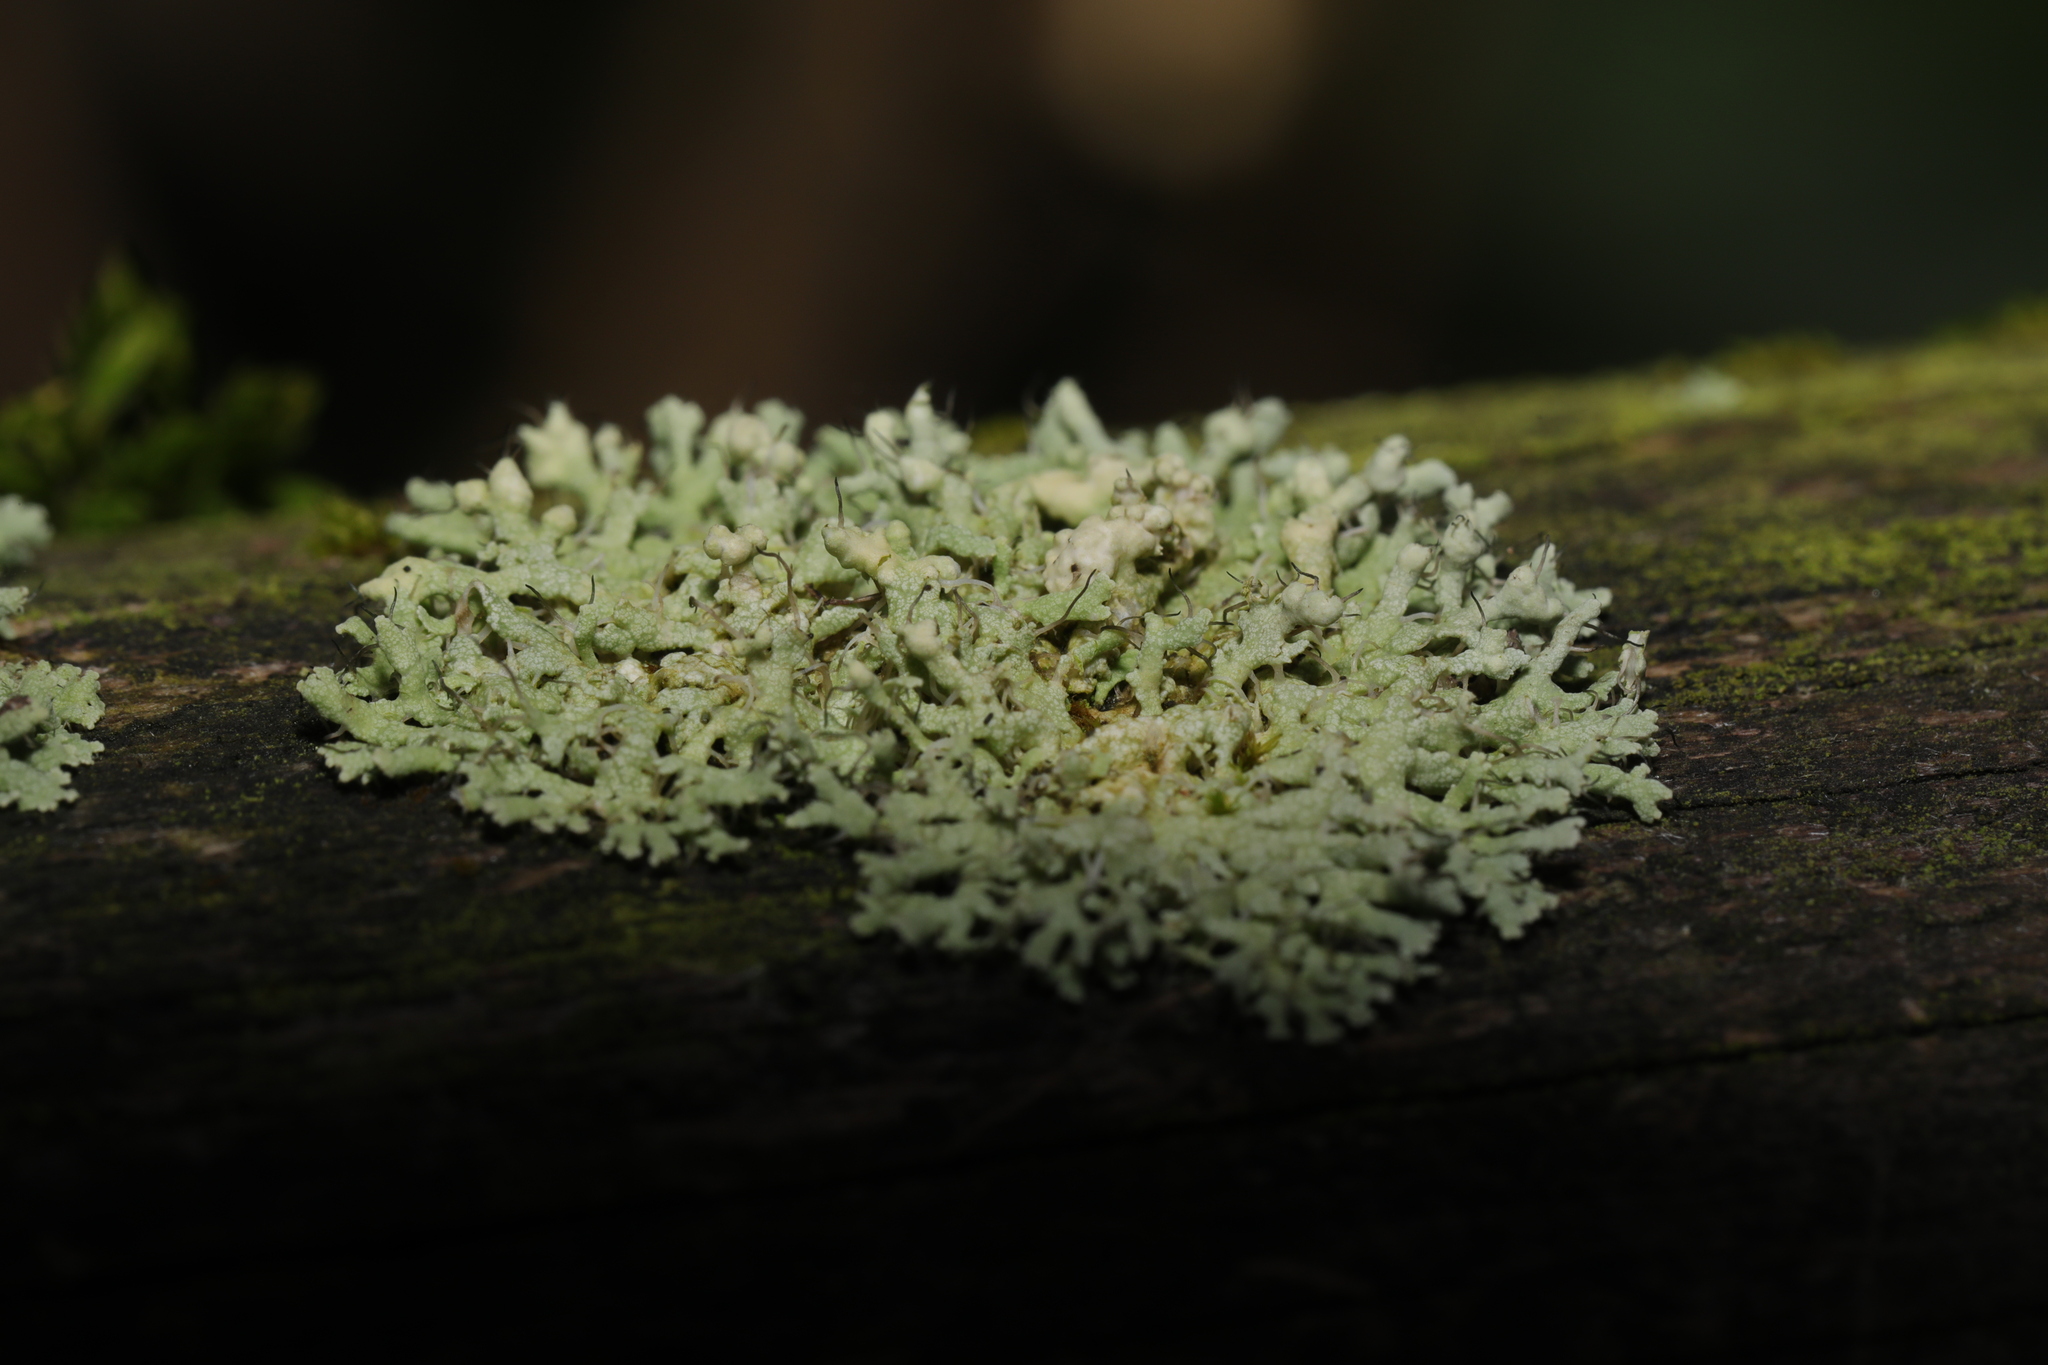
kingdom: Fungi
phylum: Ascomycota
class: Lecanoromycetes
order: Caliciales
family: Physciaceae
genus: Physcia
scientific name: Physcia adscendens
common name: Hooded rosette lichen
